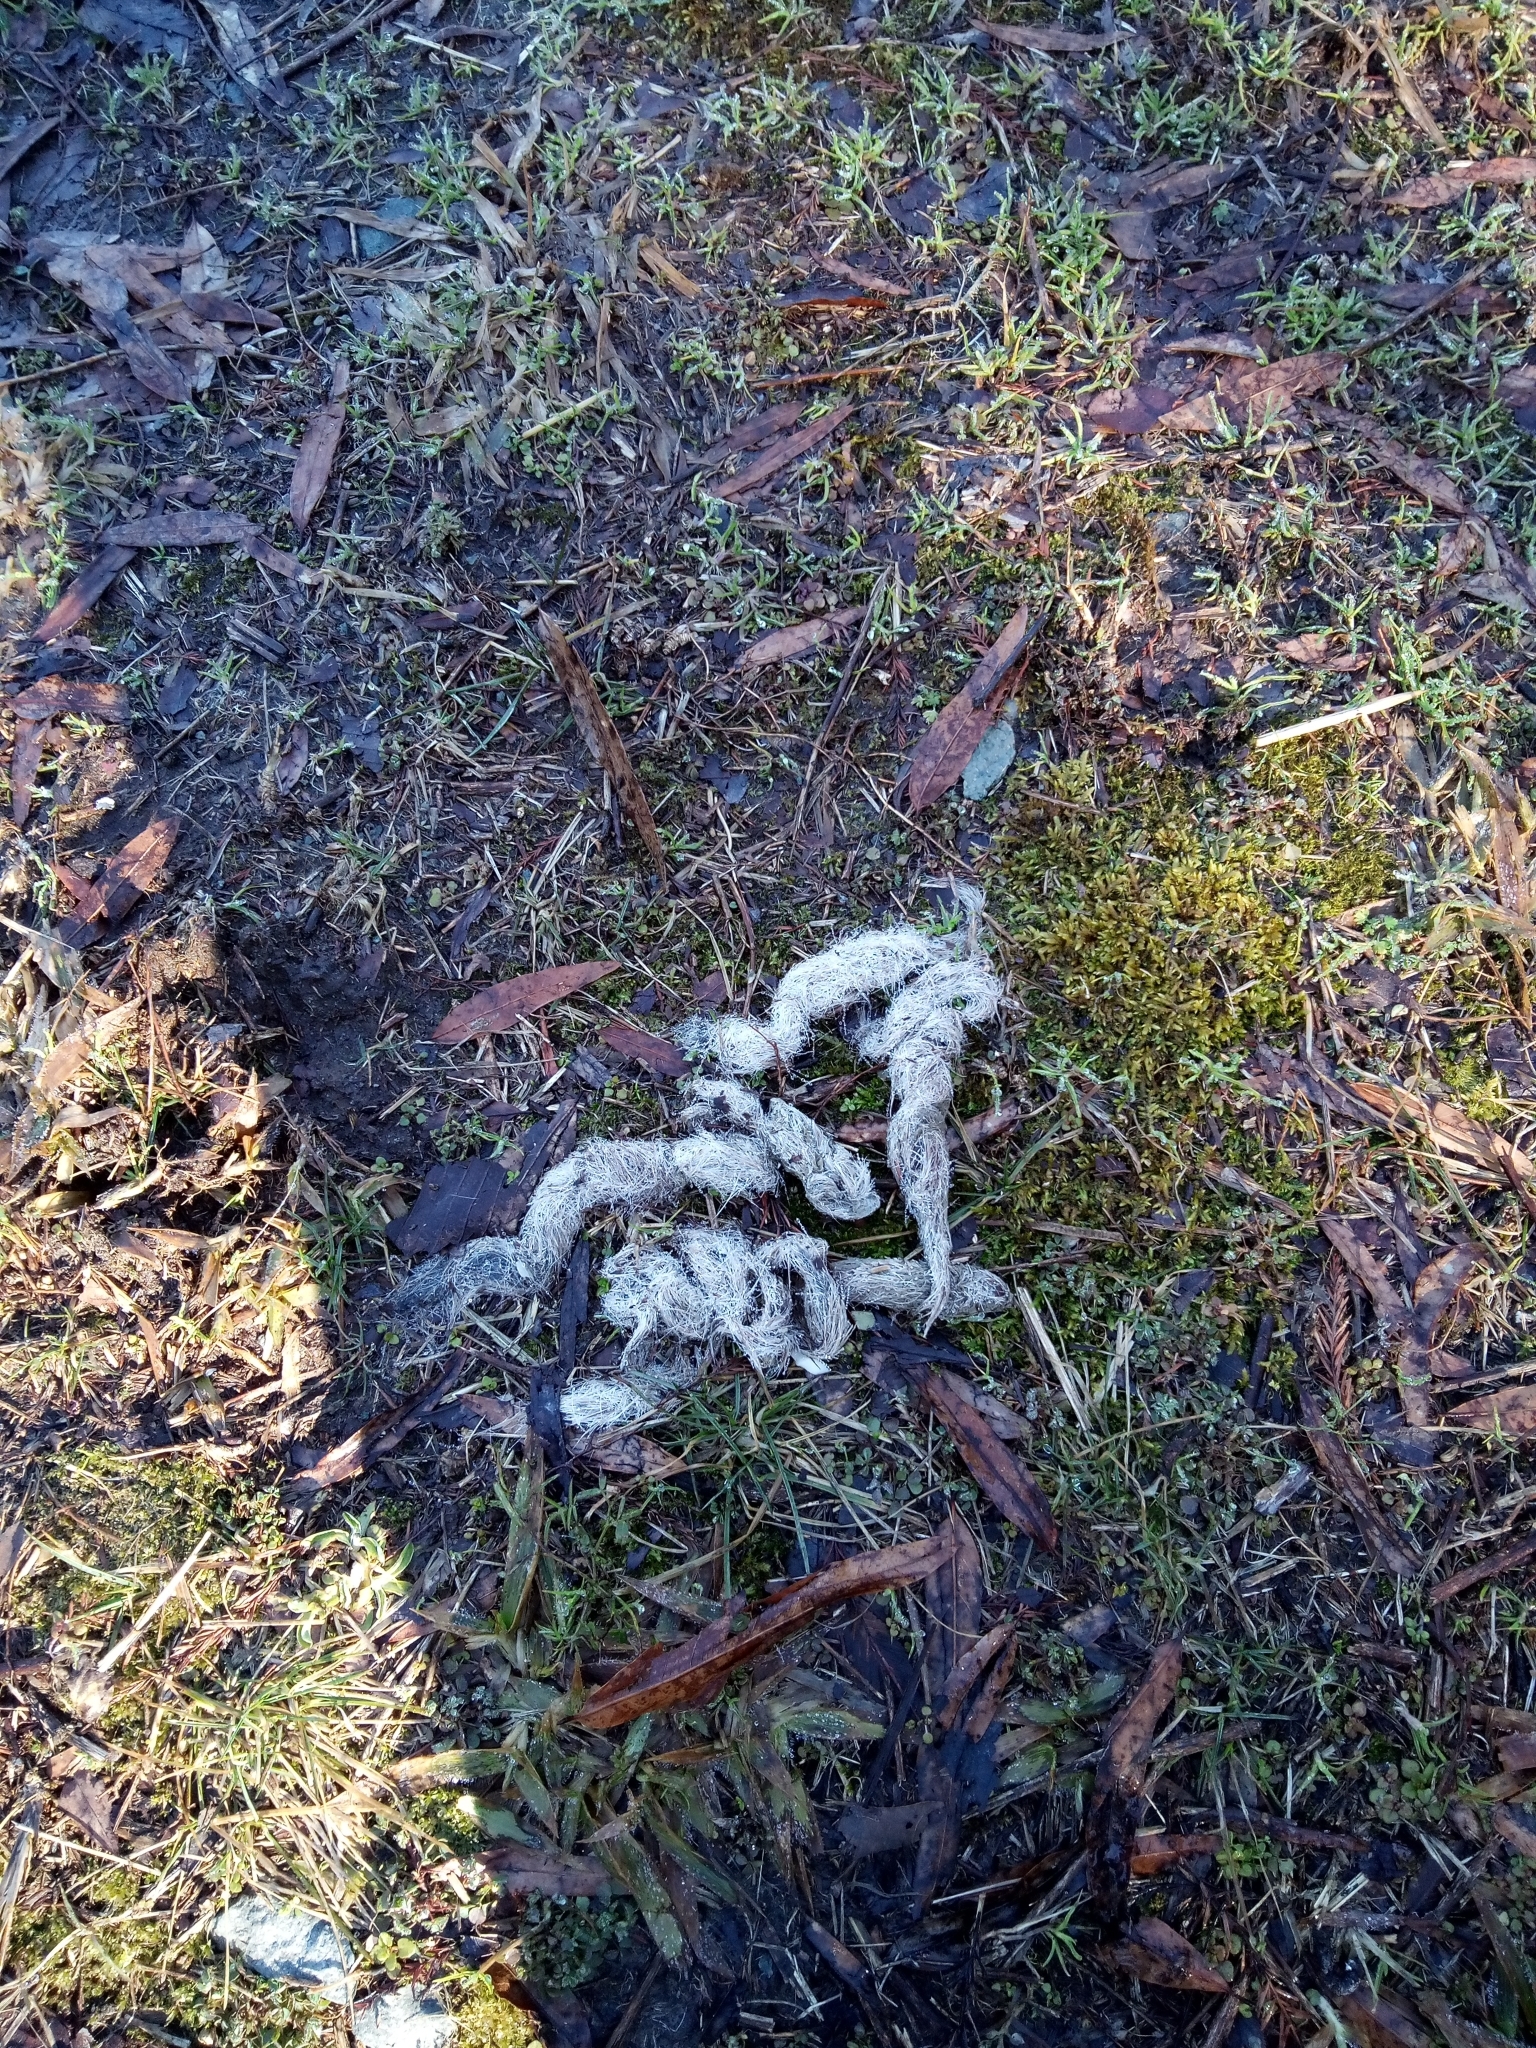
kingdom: Animalia
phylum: Chordata
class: Mammalia
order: Carnivora
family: Canidae
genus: Canis
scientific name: Canis latrans
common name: Coyote
